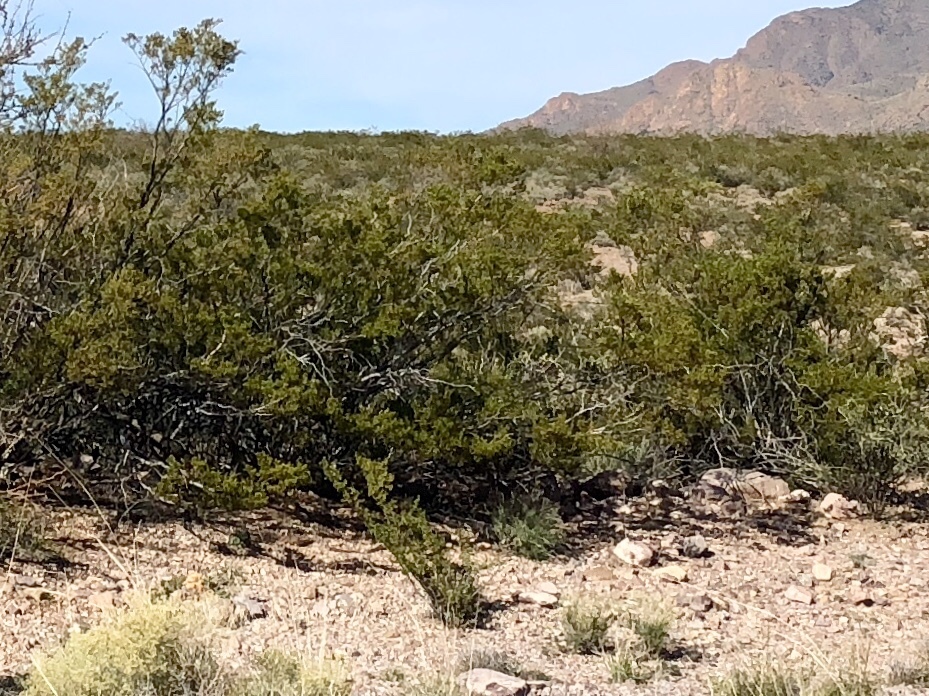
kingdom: Plantae
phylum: Tracheophyta
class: Magnoliopsida
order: Zygophyllales
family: Zygophyllaceae
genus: Larrea
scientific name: Larrea tridentata
